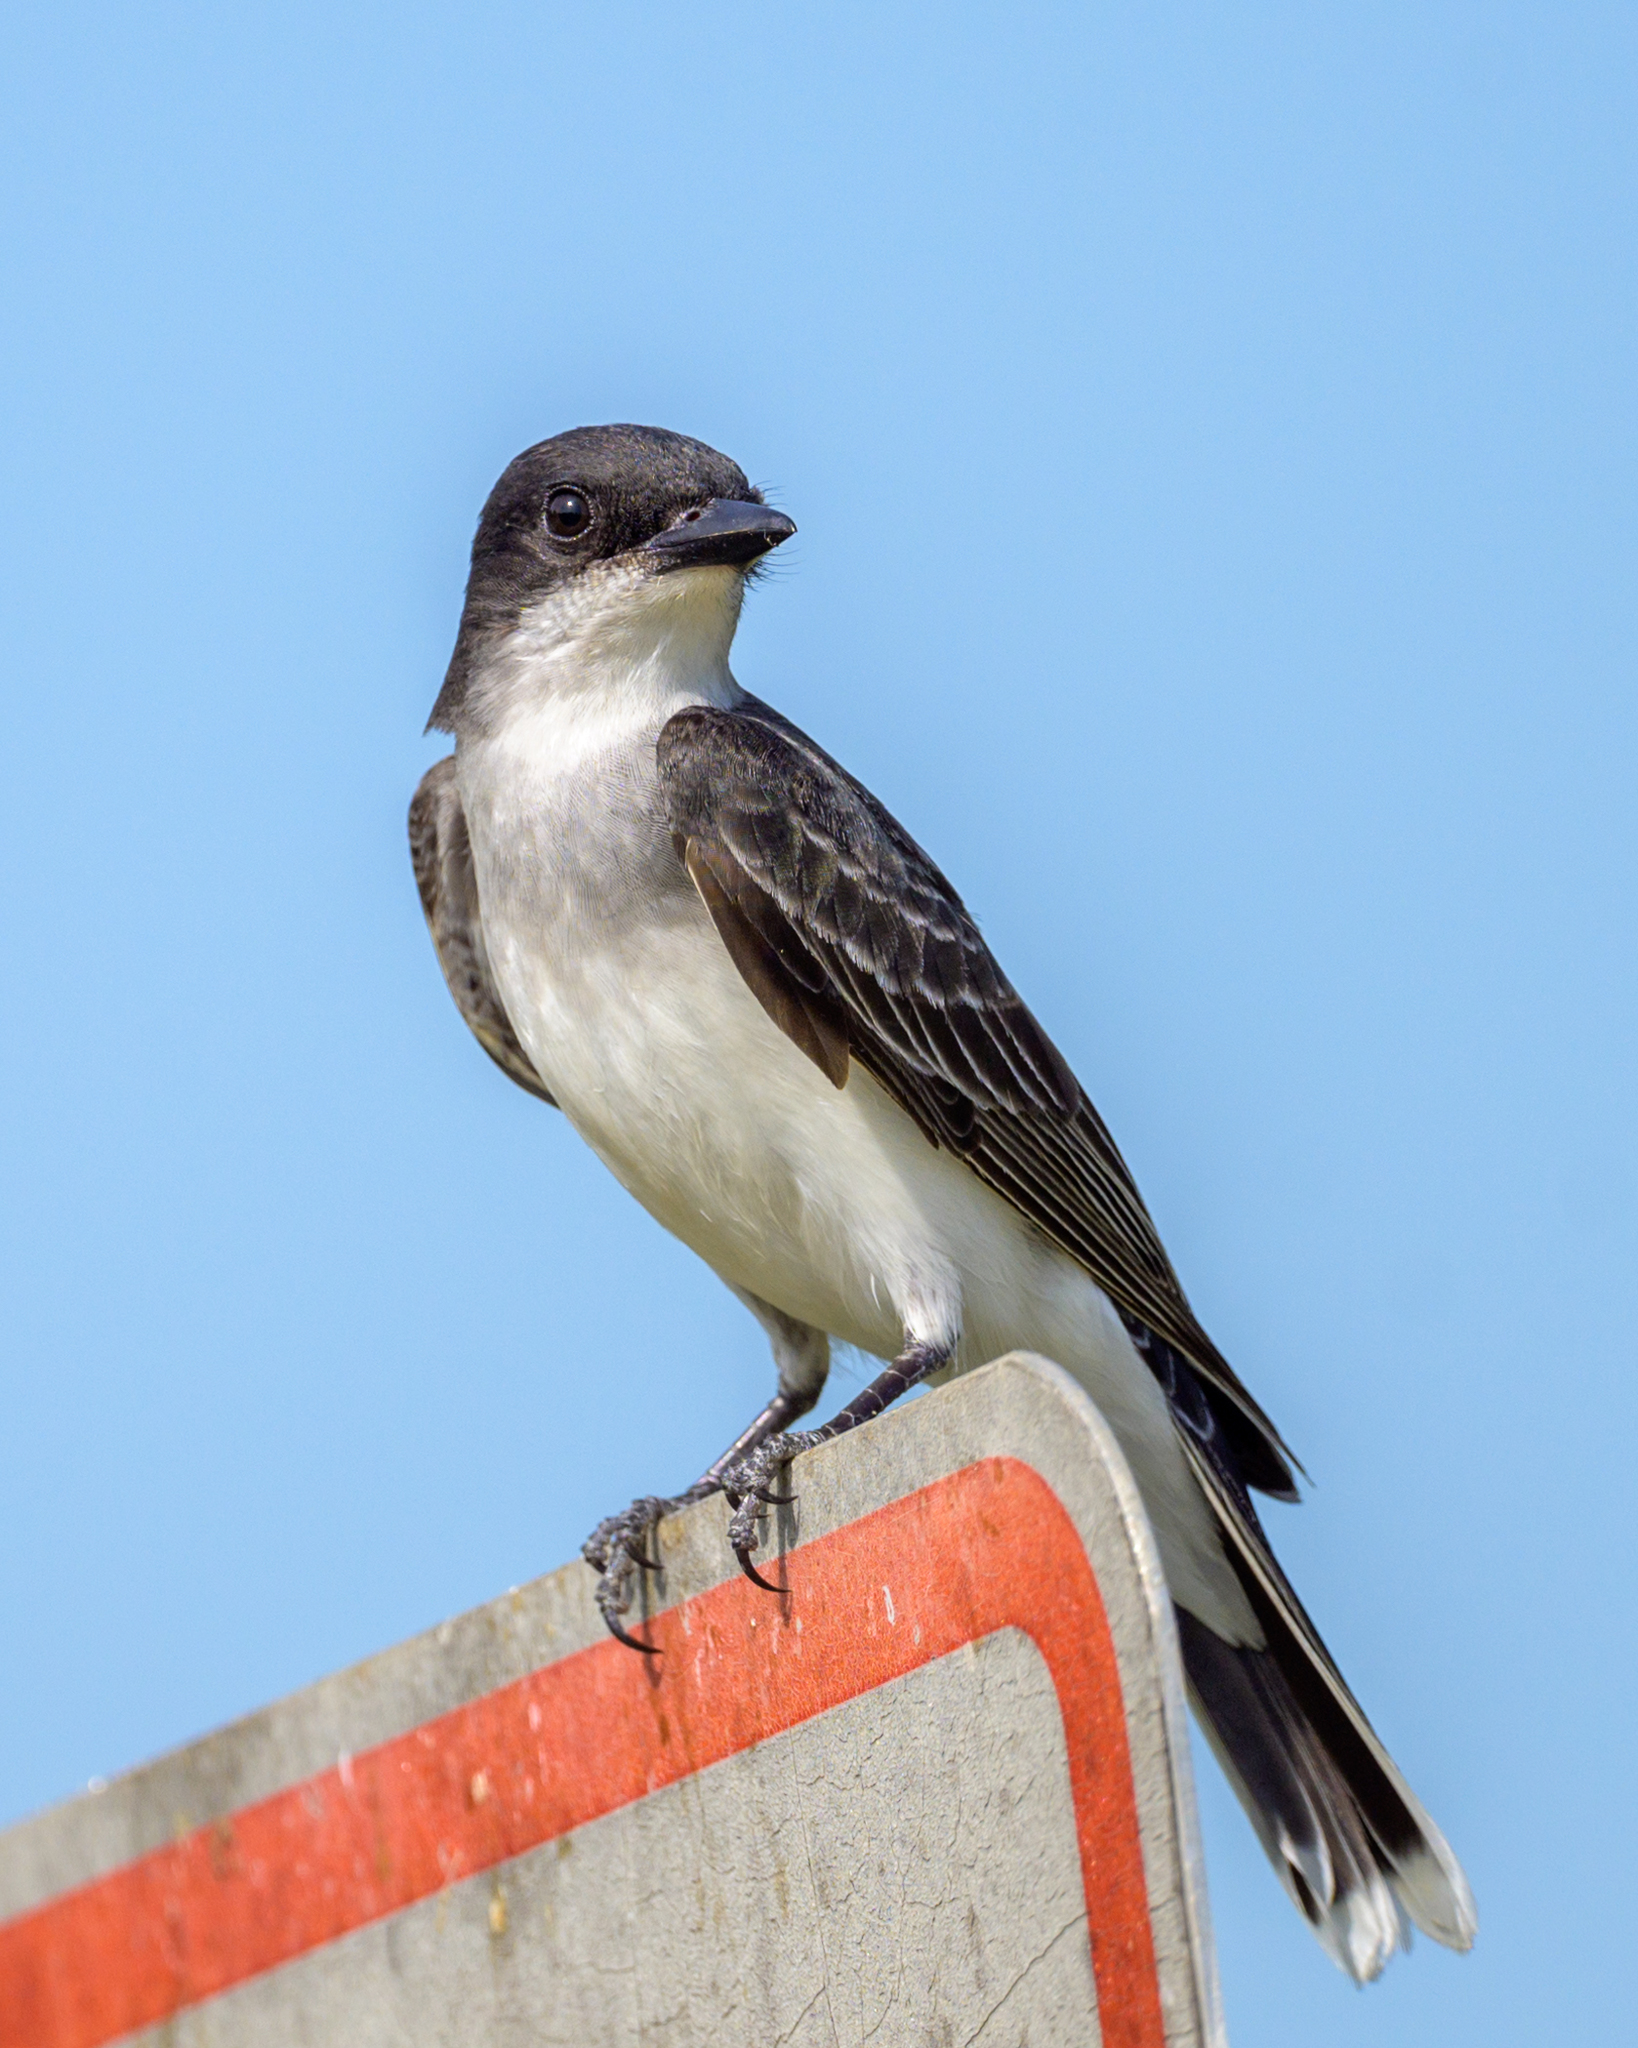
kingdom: Animalia
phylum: Chordata
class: Aves
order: Passeriformes
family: Tyrannidae
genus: Tyrannus
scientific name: Tyrannus tyrannus
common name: Eastern kingbird
